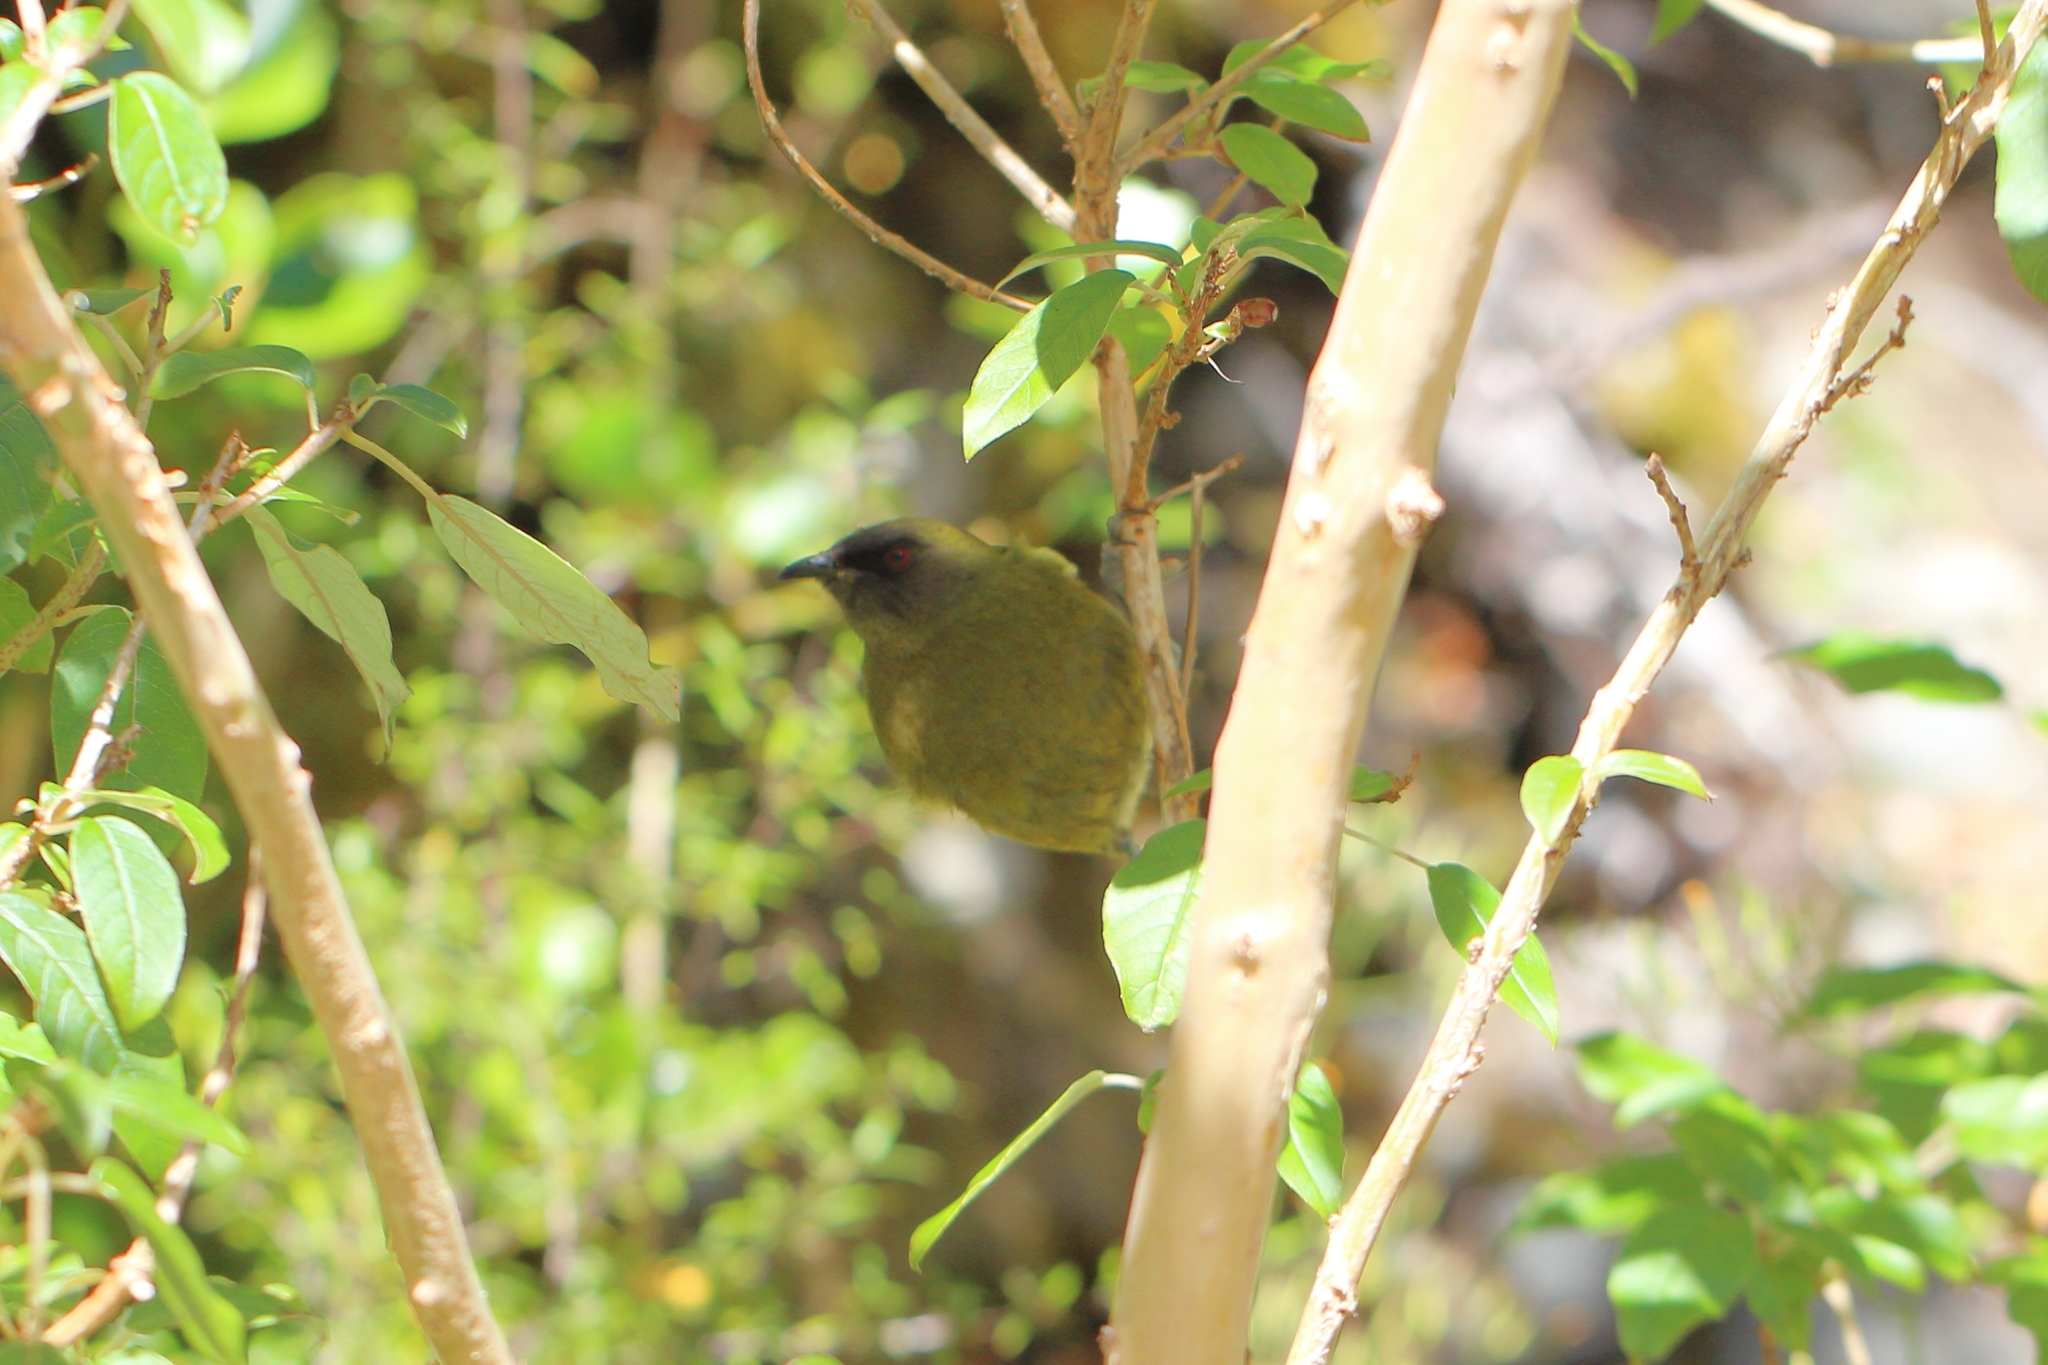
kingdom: Animalia
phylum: Chordata
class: Aves
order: Passeriformes
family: Meliphagidae
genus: Anthornis
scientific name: Anthornis melanura
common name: New zealand bellbird
